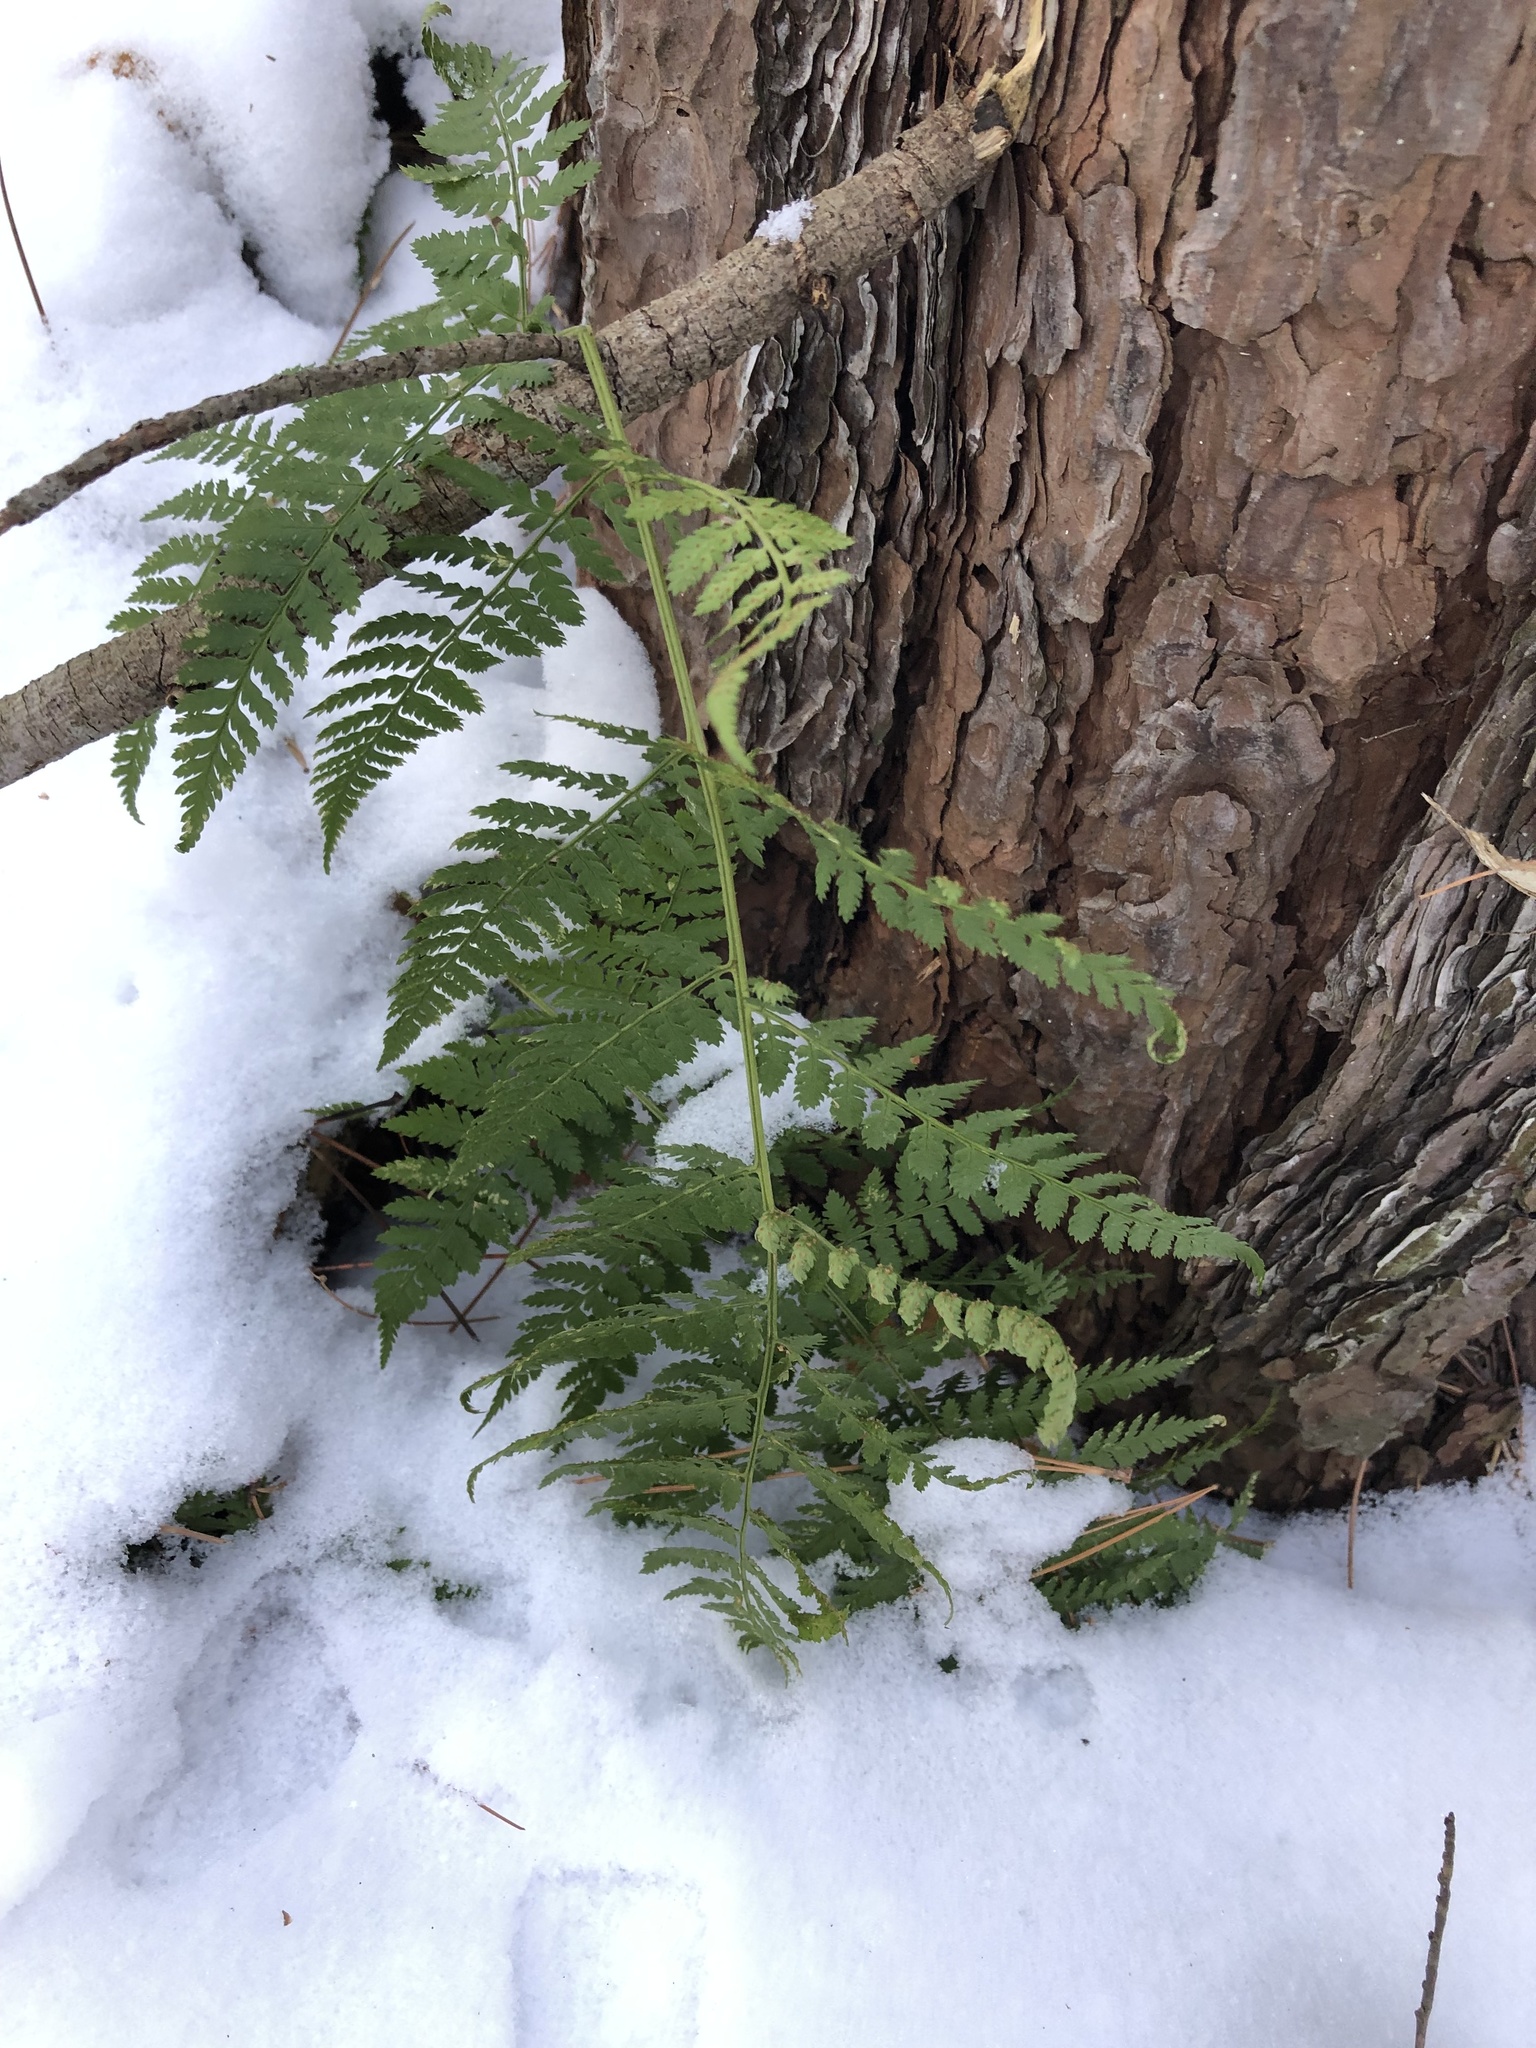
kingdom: Plantae
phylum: Tracheophyta
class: Polypodiopsida
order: Polypodiales
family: Dryopteridaceae
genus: Dryopteris
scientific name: Dryopteris intermedia
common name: Evergreen wood fern
